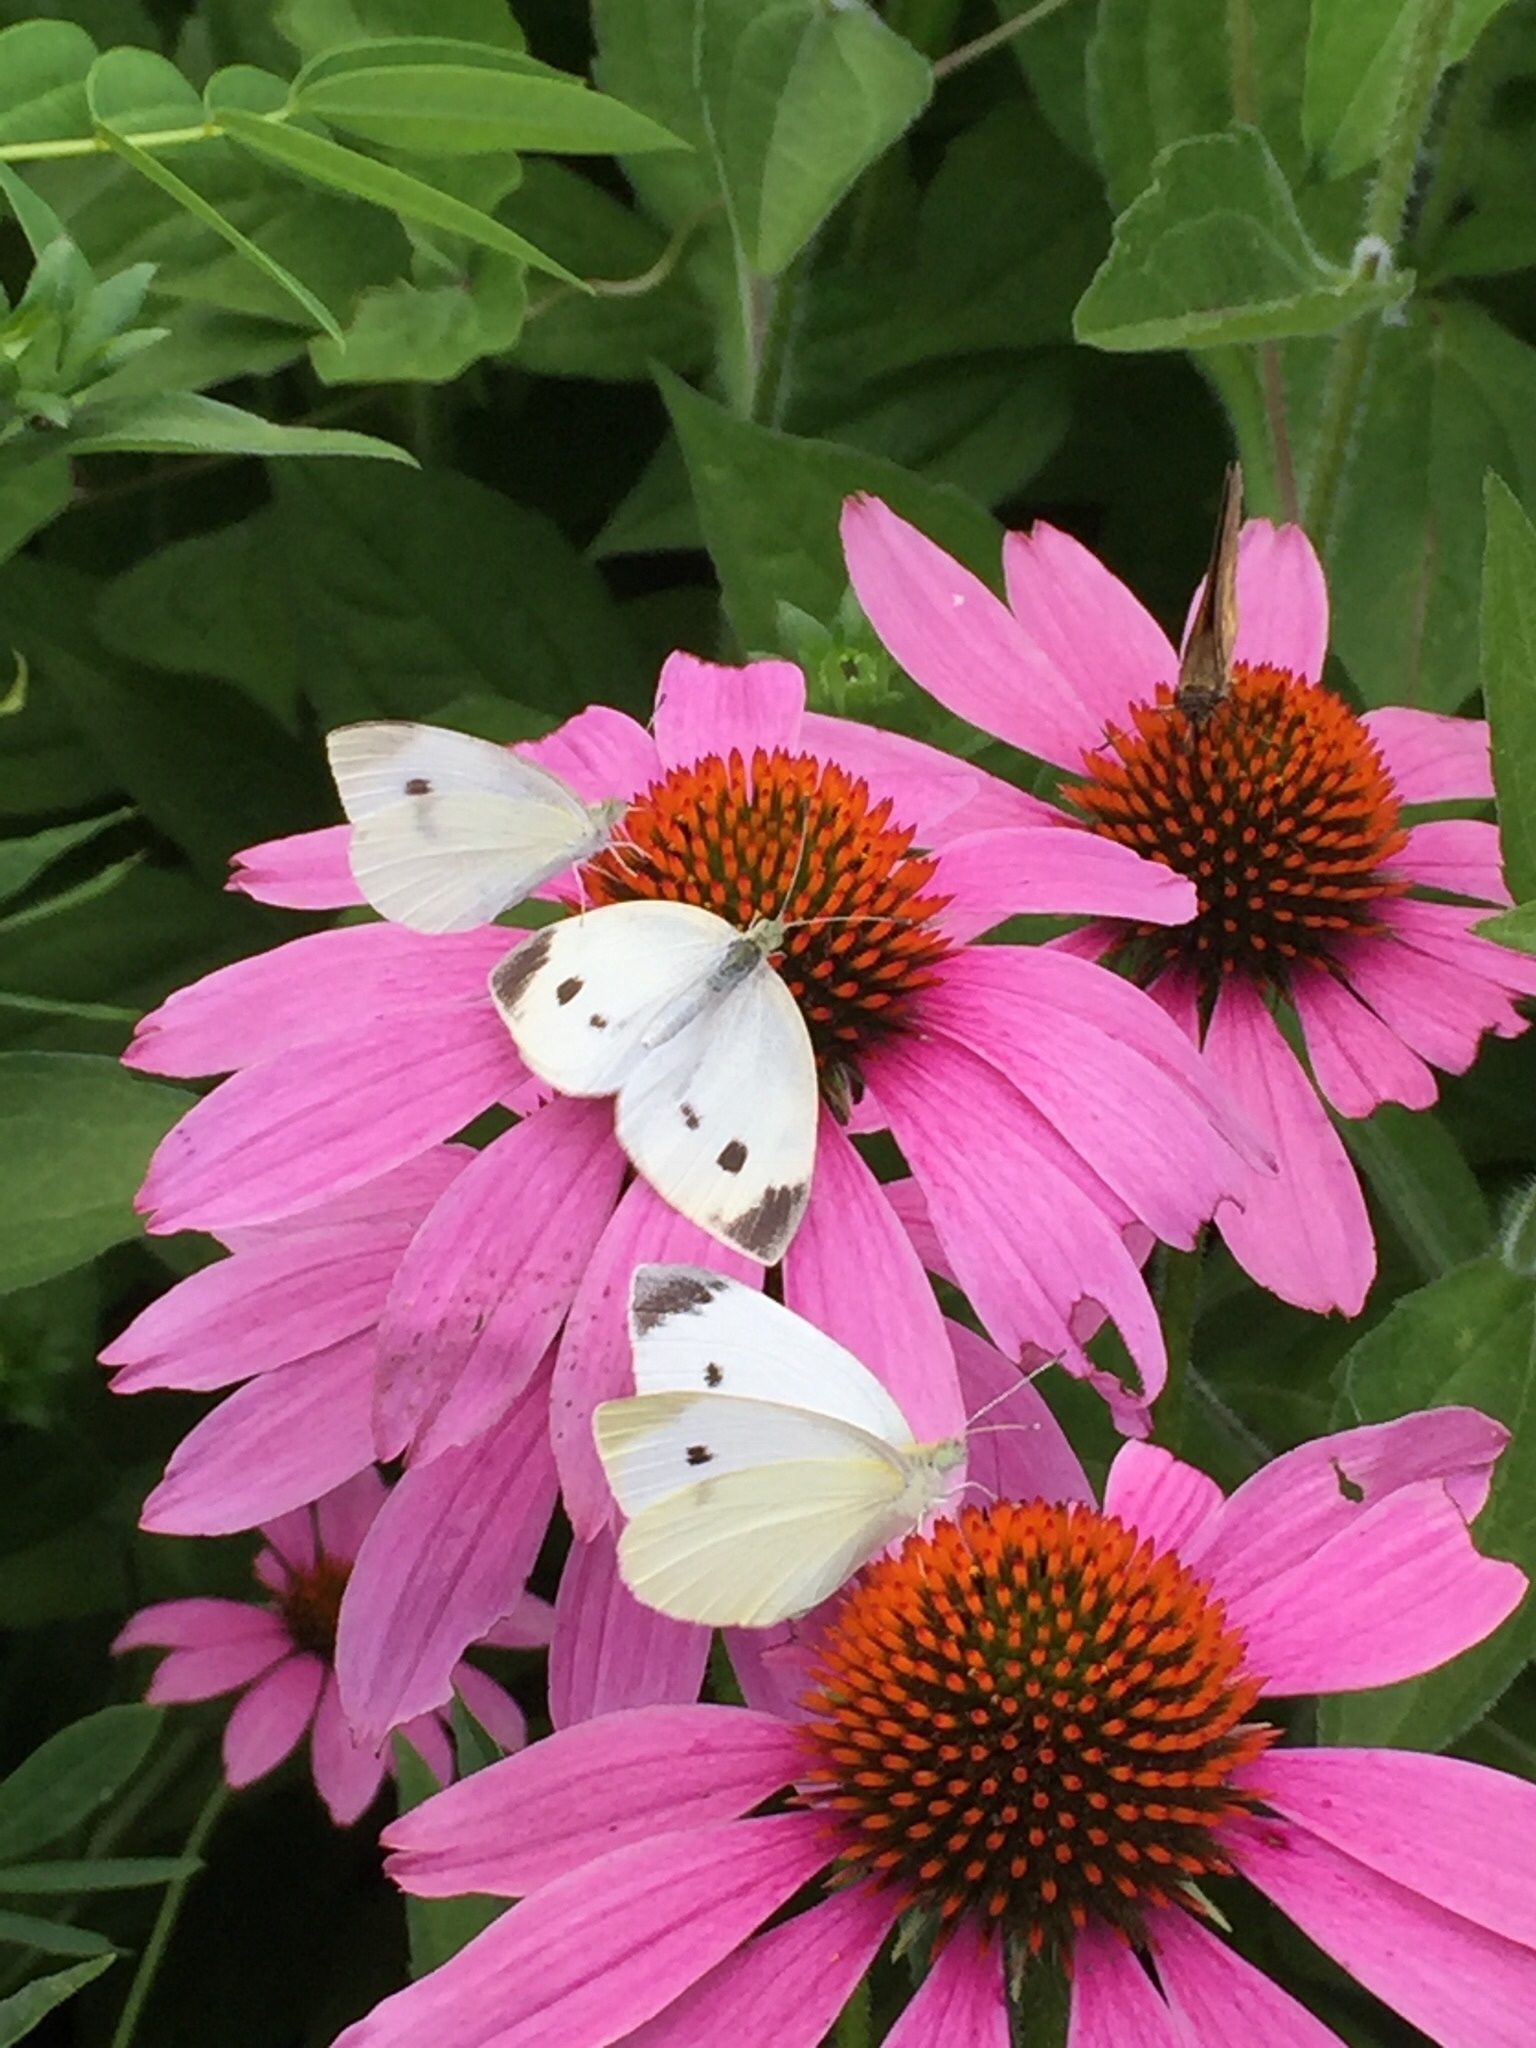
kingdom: Animalia
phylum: Arthropoda
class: Insecta
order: Lepidoptera
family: Pieridae
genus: Pieris
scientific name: Pieris rapae
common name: Small white
